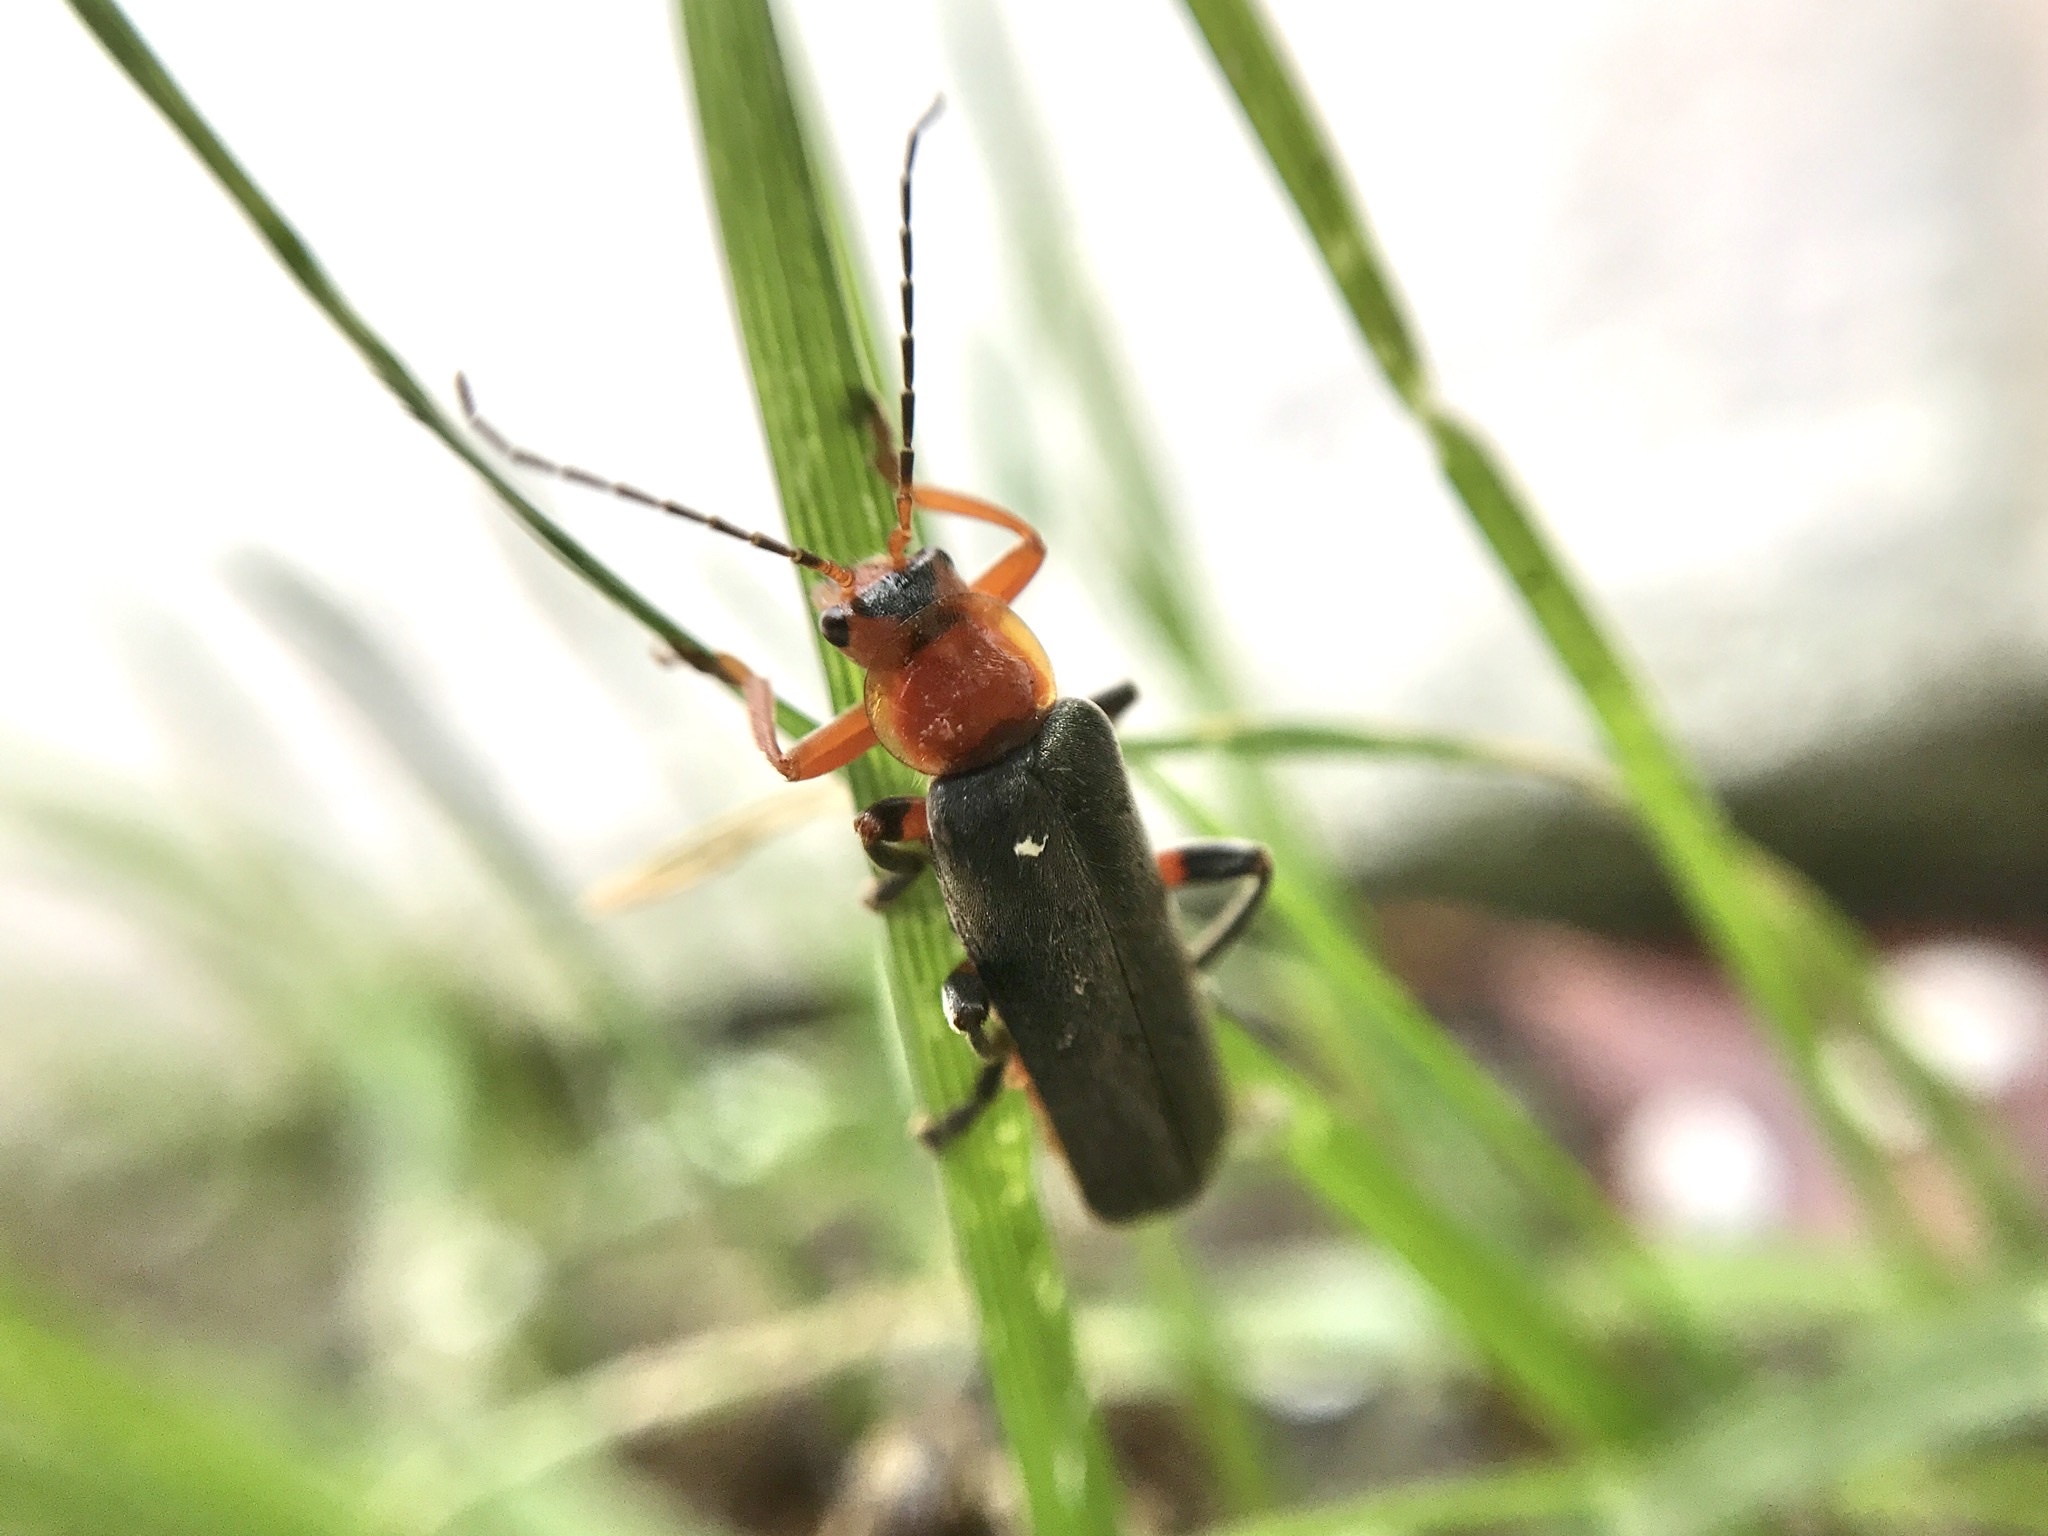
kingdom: Animalia
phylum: Arthropoda
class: Insecta
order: Coleoptera
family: Cantharidae
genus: Cantharis
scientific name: Cantharis livida
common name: Livid soldier beetle
